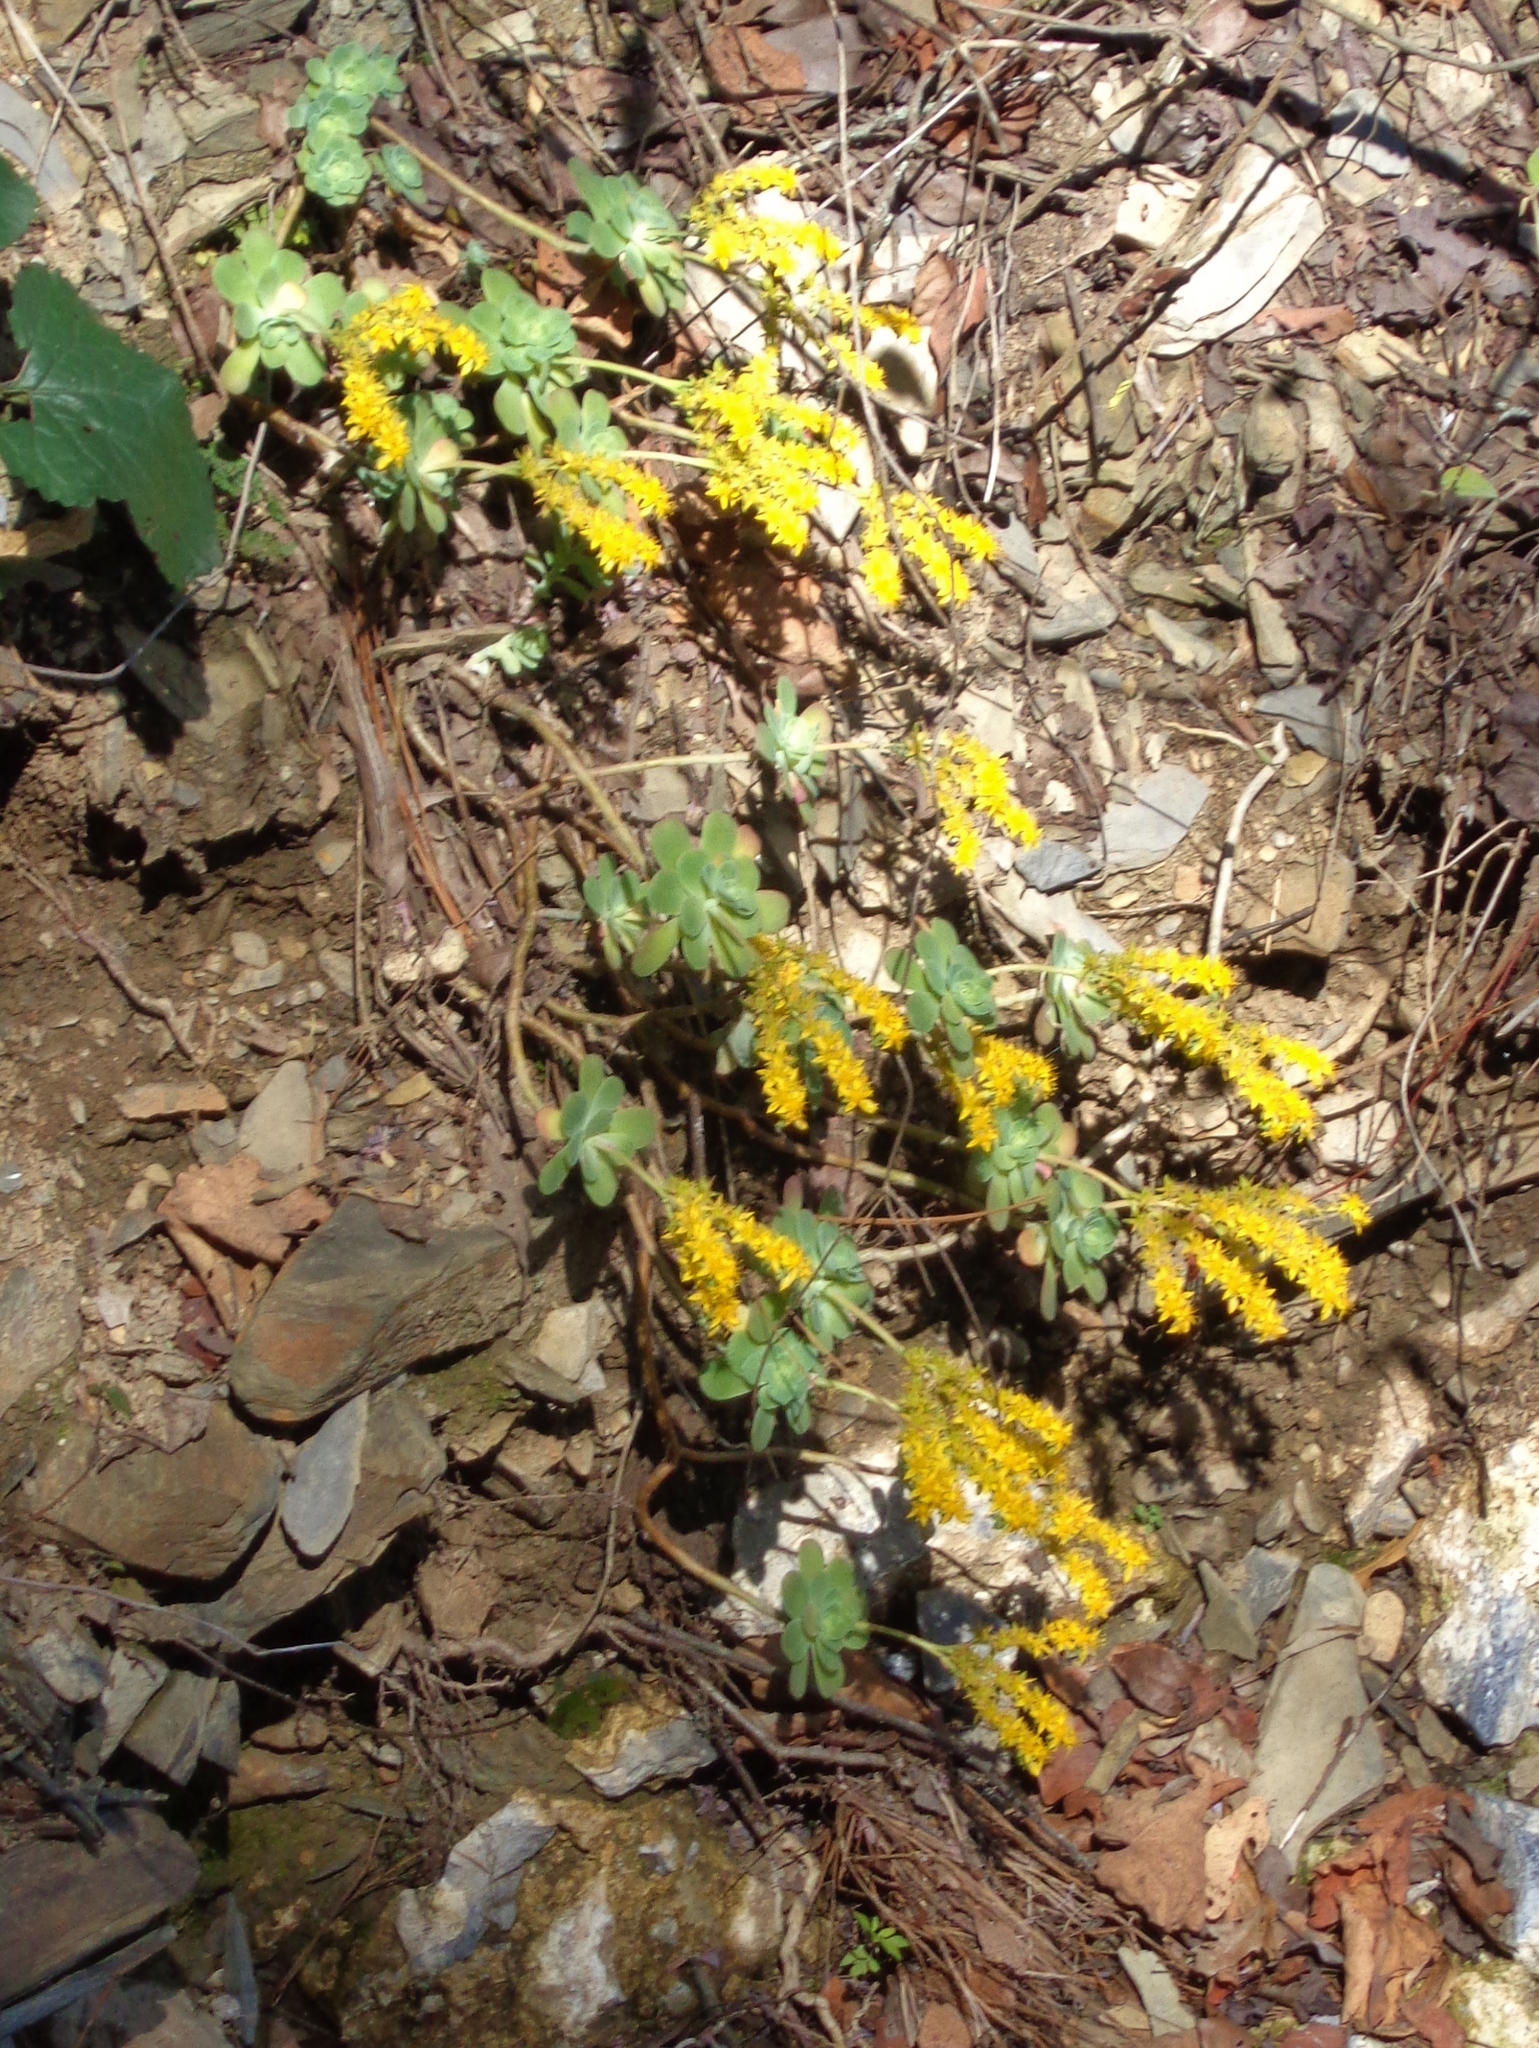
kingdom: Plantae
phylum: Tracheophyta
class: Magnoliopsida
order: Saxifragales
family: Crassulaceae
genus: Sedum
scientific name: Sedum palmeri
